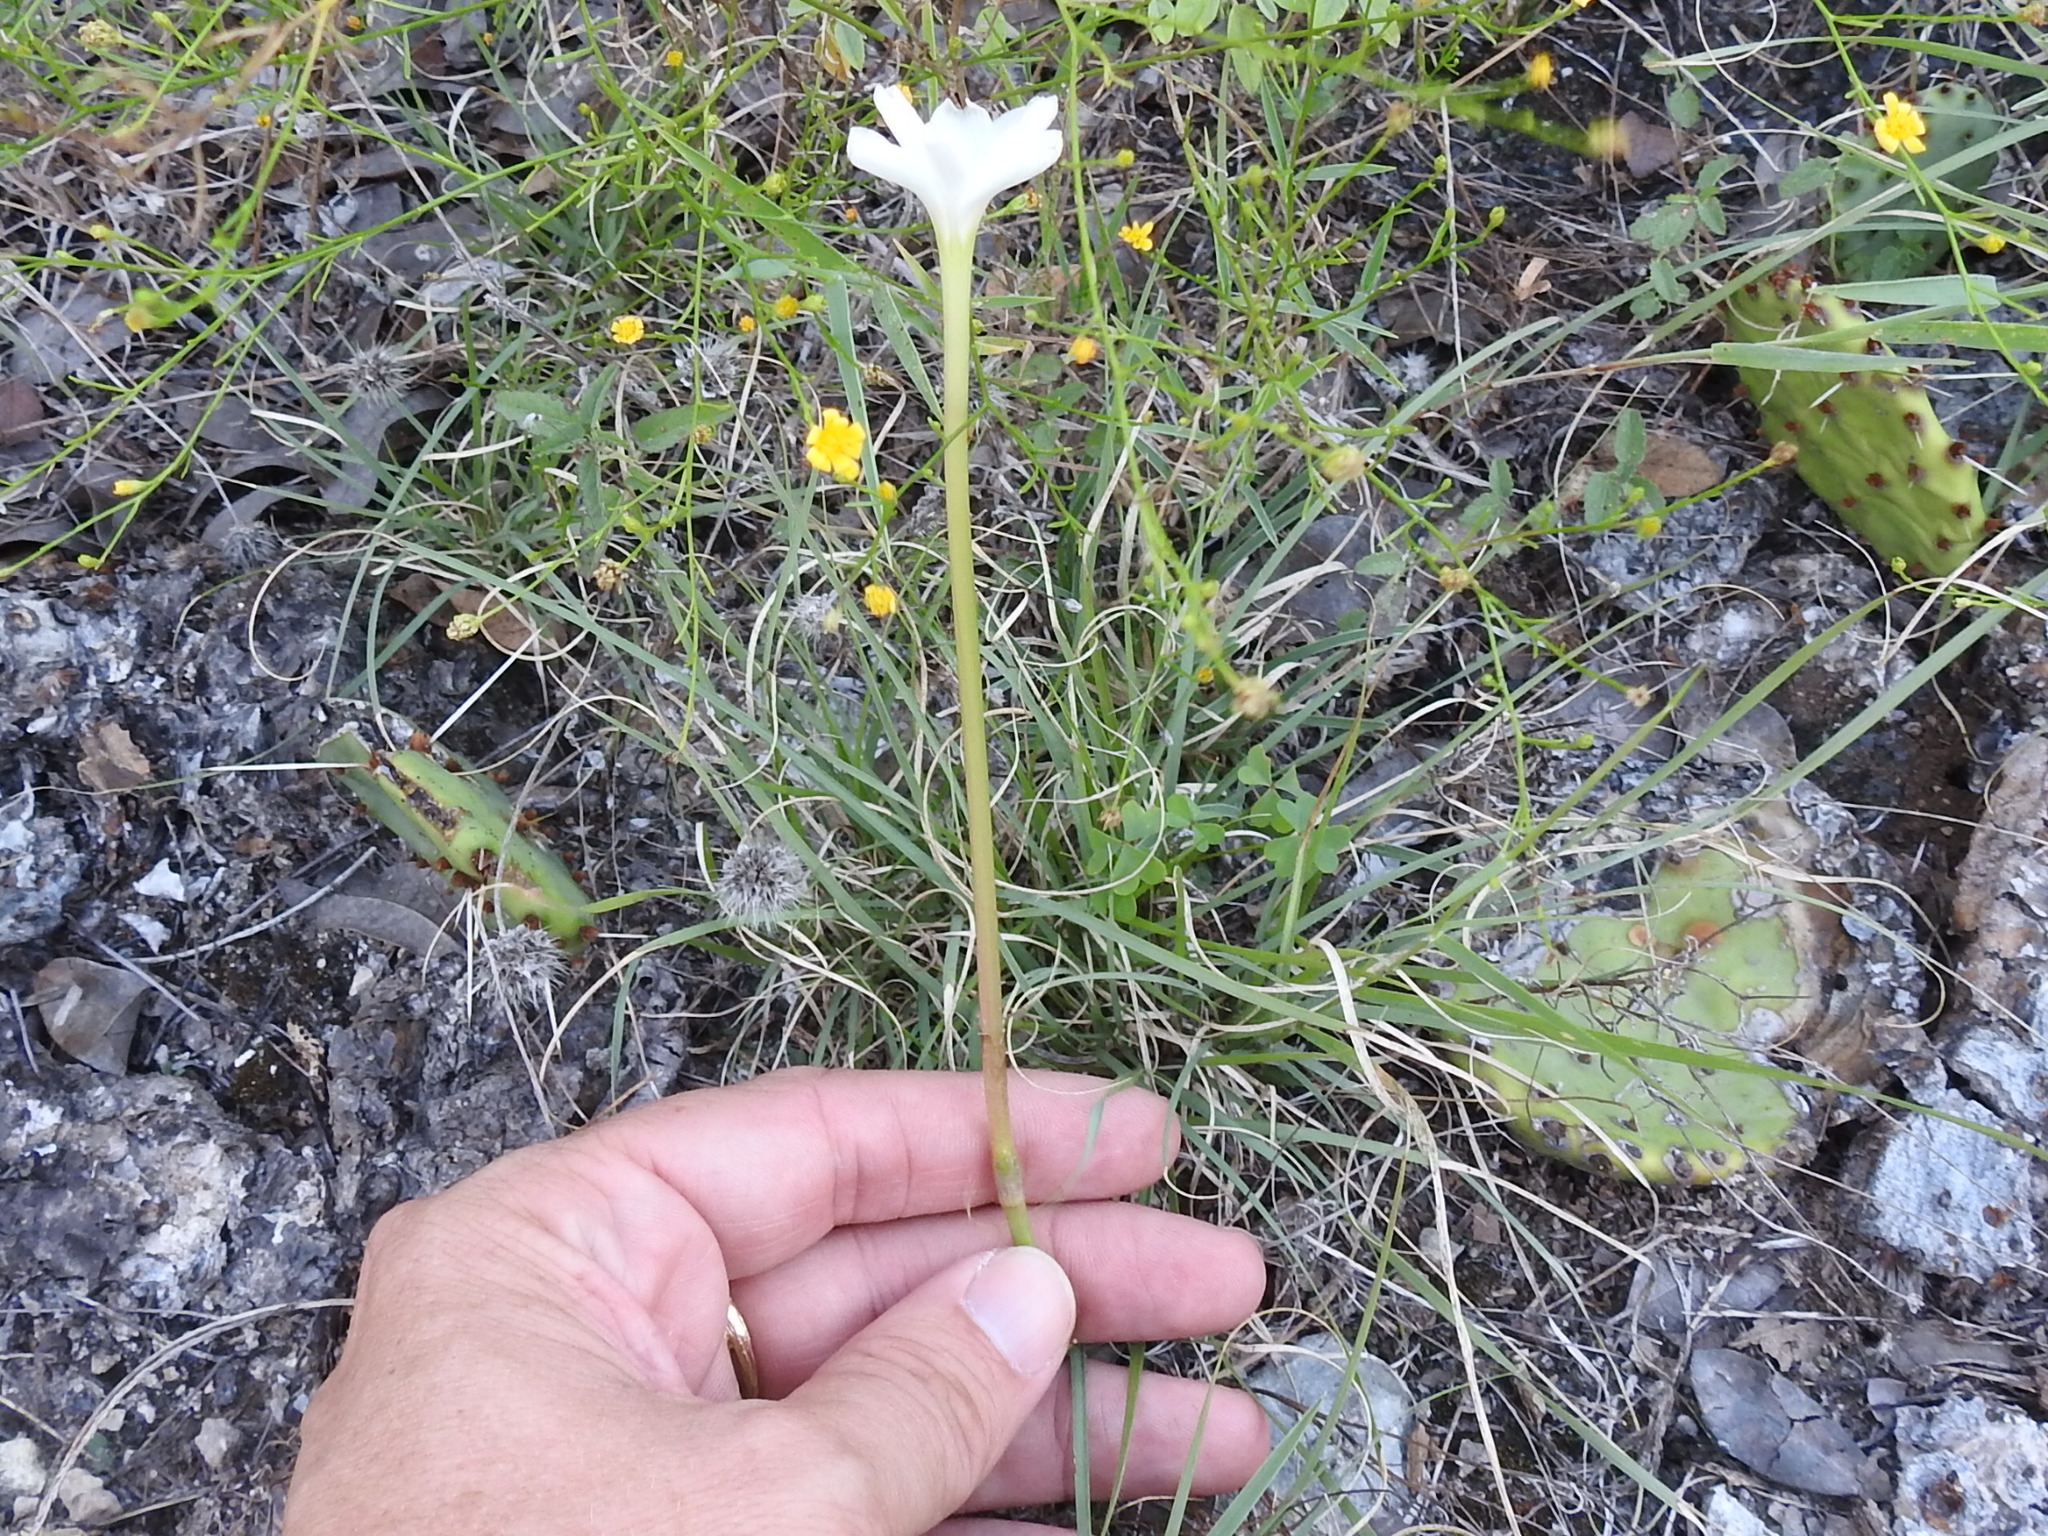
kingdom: Plantae
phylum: Tracheophyta
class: Liliopsida
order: Asparagales
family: Amaryllidaceae
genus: Zephyranthes
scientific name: Zephyranthes chlorosolen
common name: Evening rain-lily
